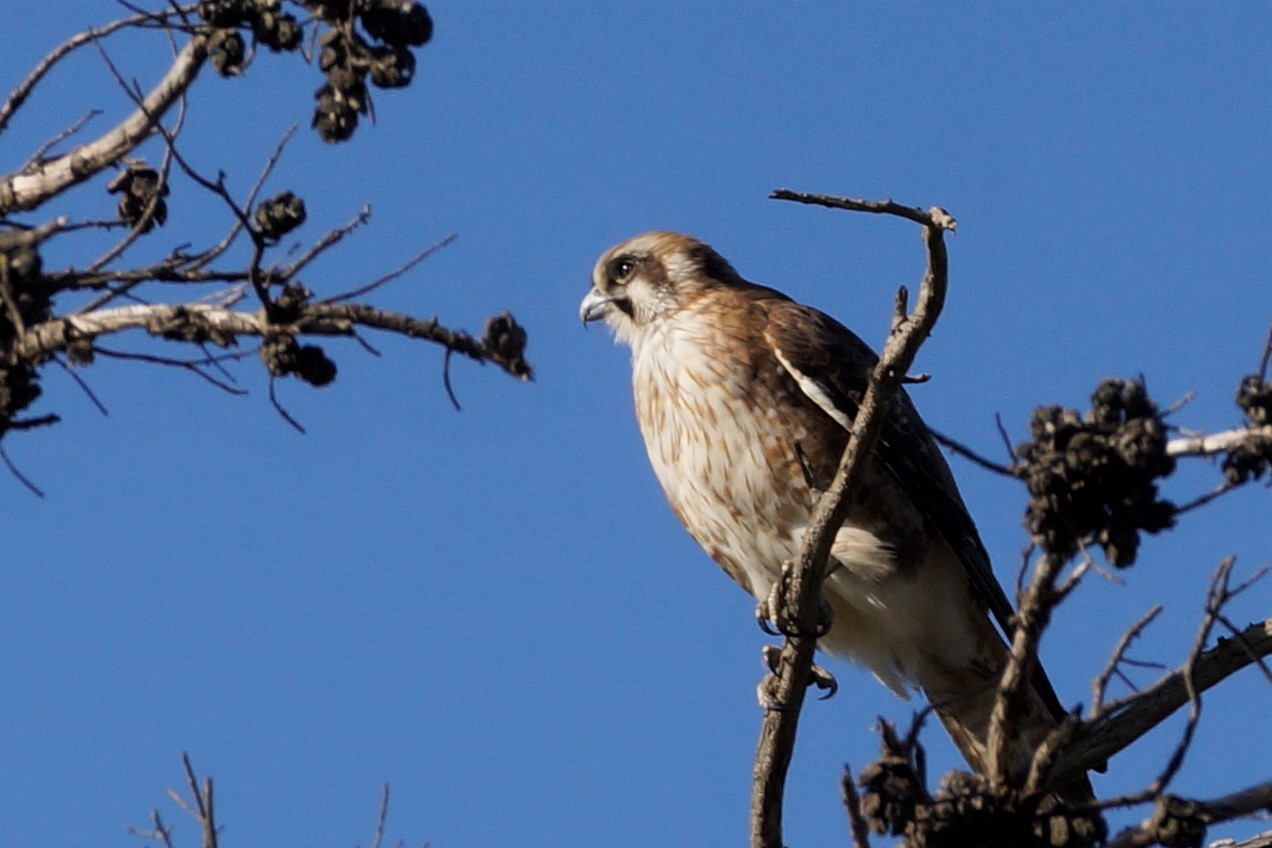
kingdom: Animalia
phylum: Chordata
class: Aves
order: Falconiformes
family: Falconidae
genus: Falco
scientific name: Falco berigora
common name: Brown falcon
